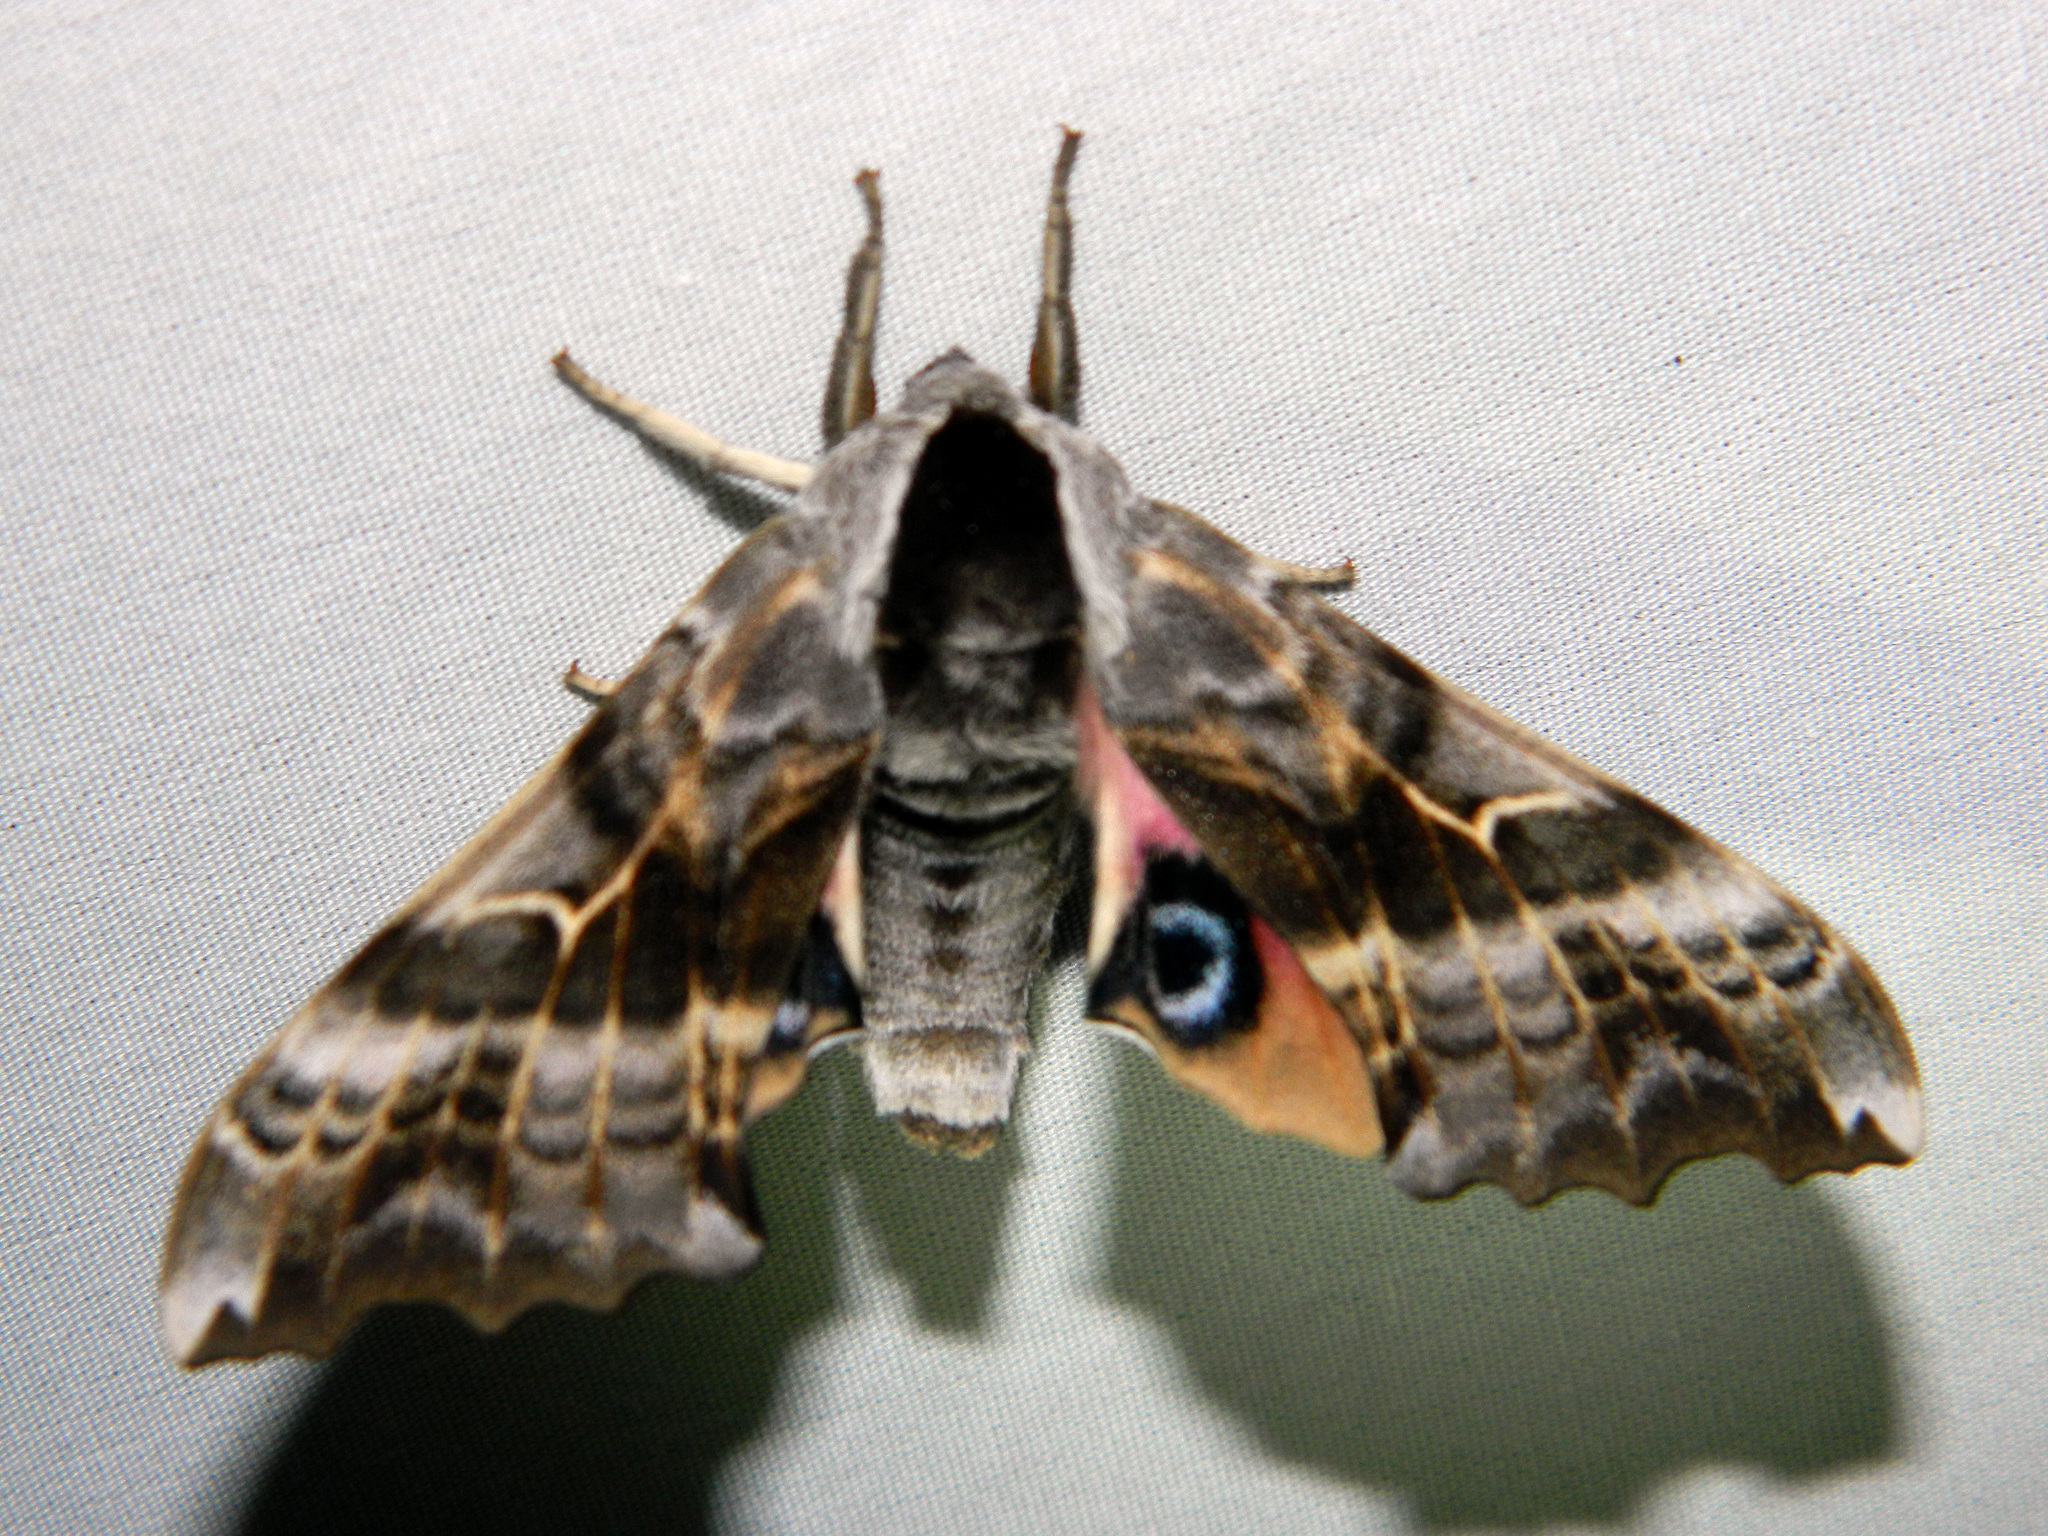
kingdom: Animalia
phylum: Arthropoda
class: Insecta
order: Lepidoptera
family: Sphingidae
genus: Smerinthus
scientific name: Smerinthus cerisyi
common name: Cerisy's sphinx moth
